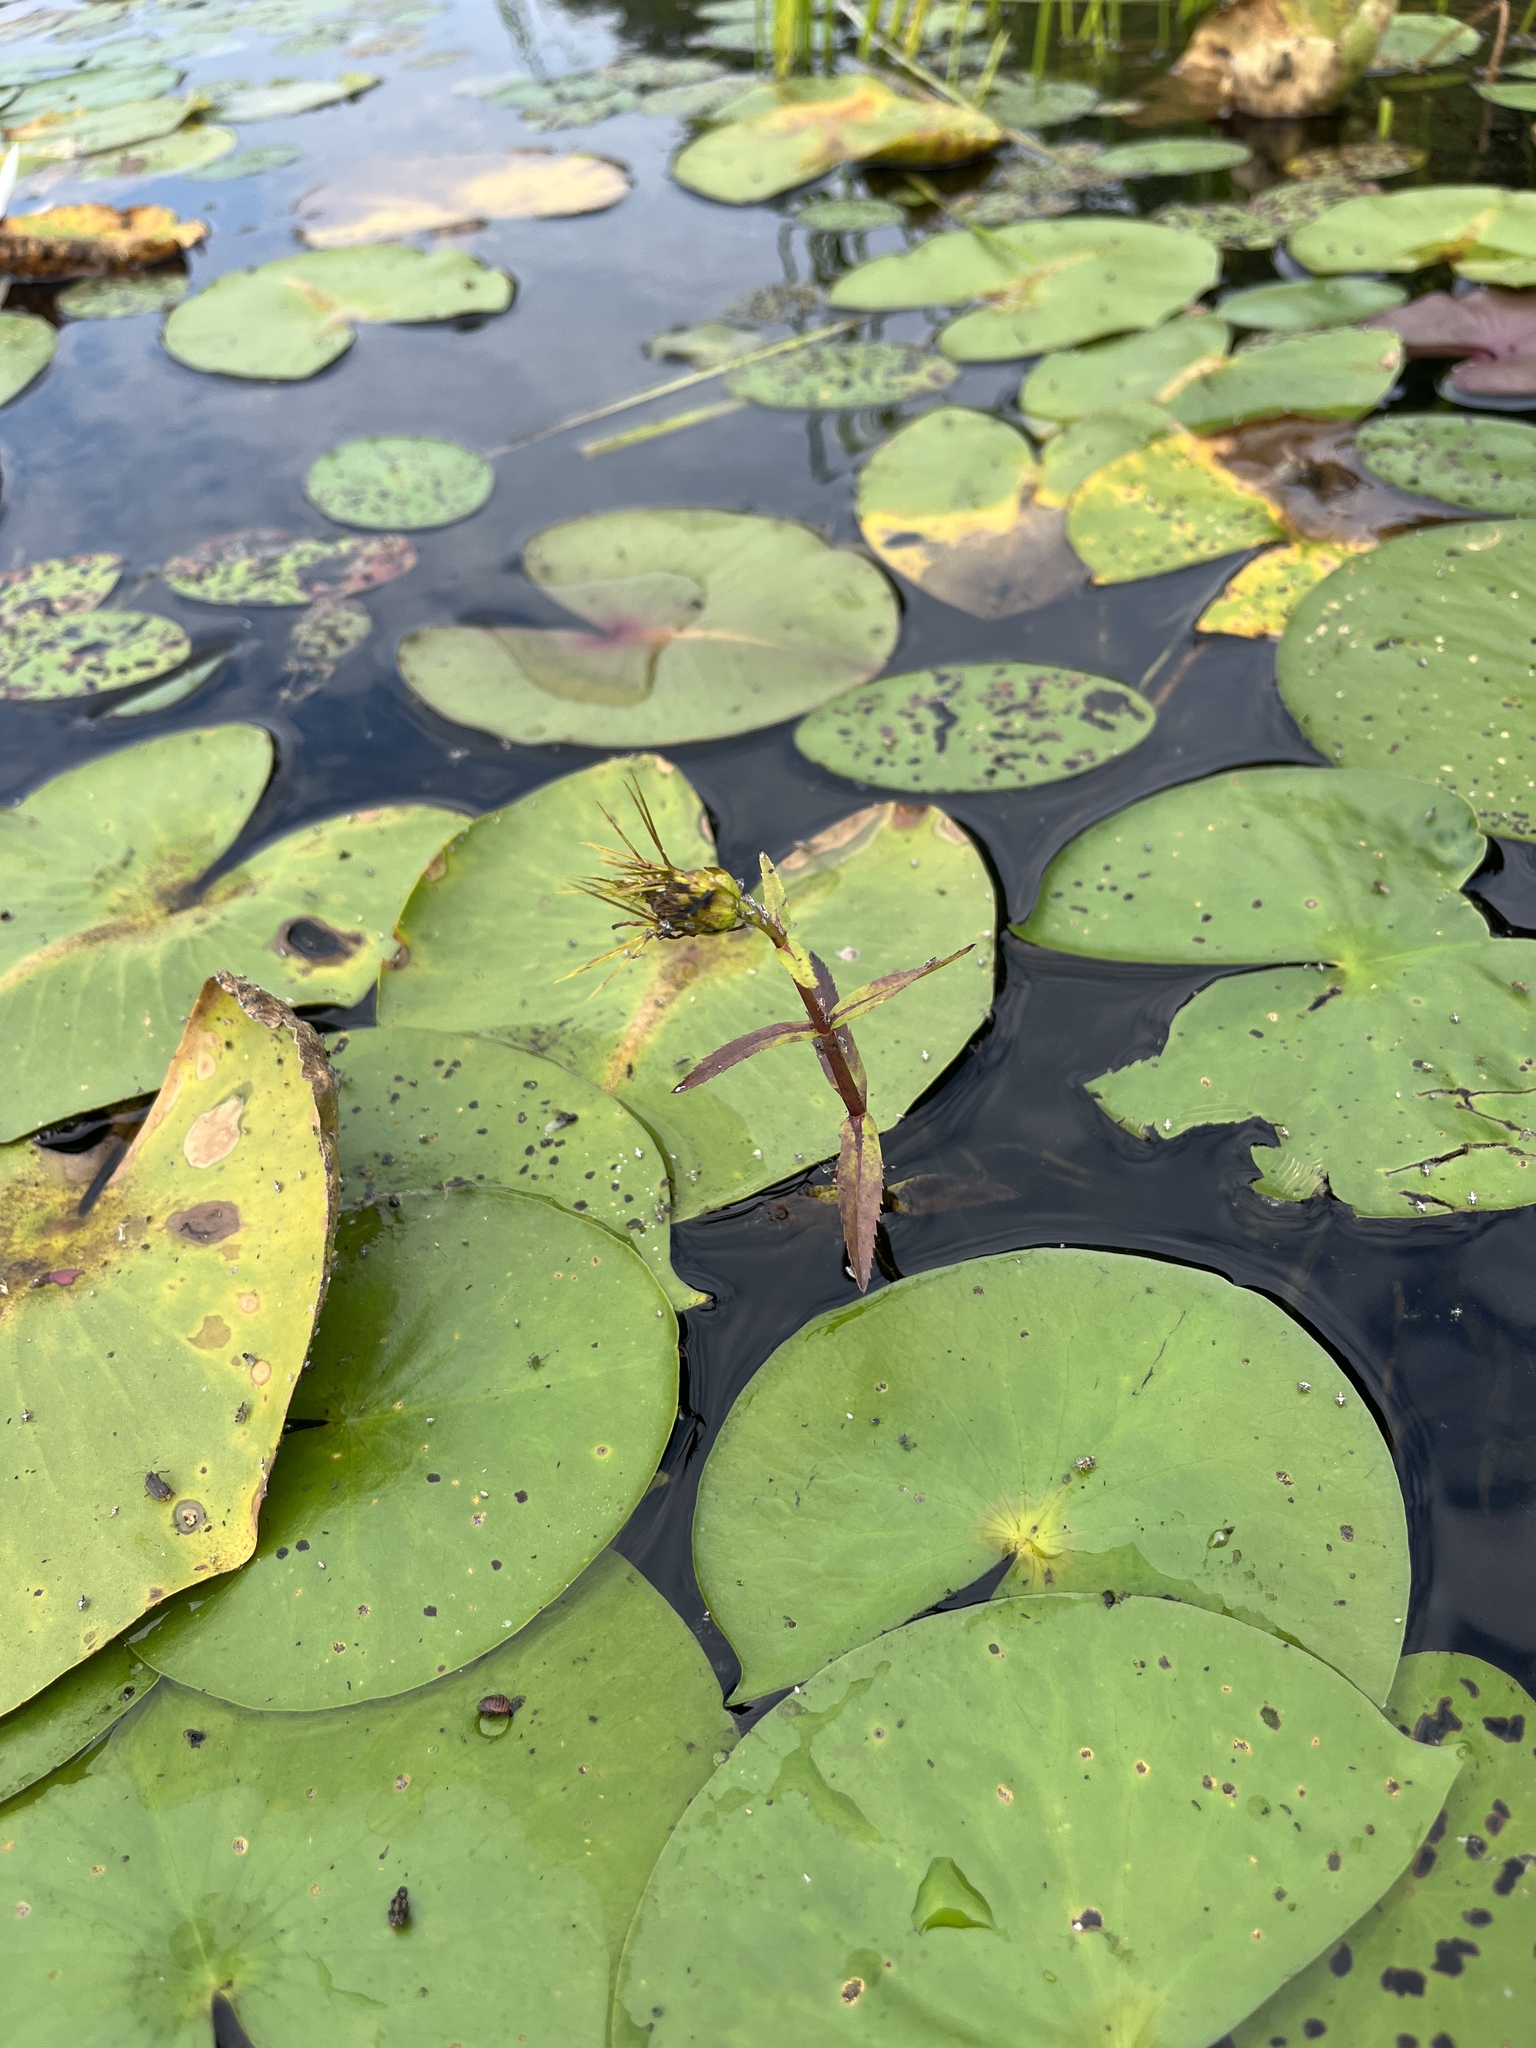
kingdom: Plantae
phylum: Tracheophyta
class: Magnoliopsida
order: Asterales
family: Asteraceae
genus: Bidens
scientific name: Bidens beckii
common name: Beck's beggarticks
